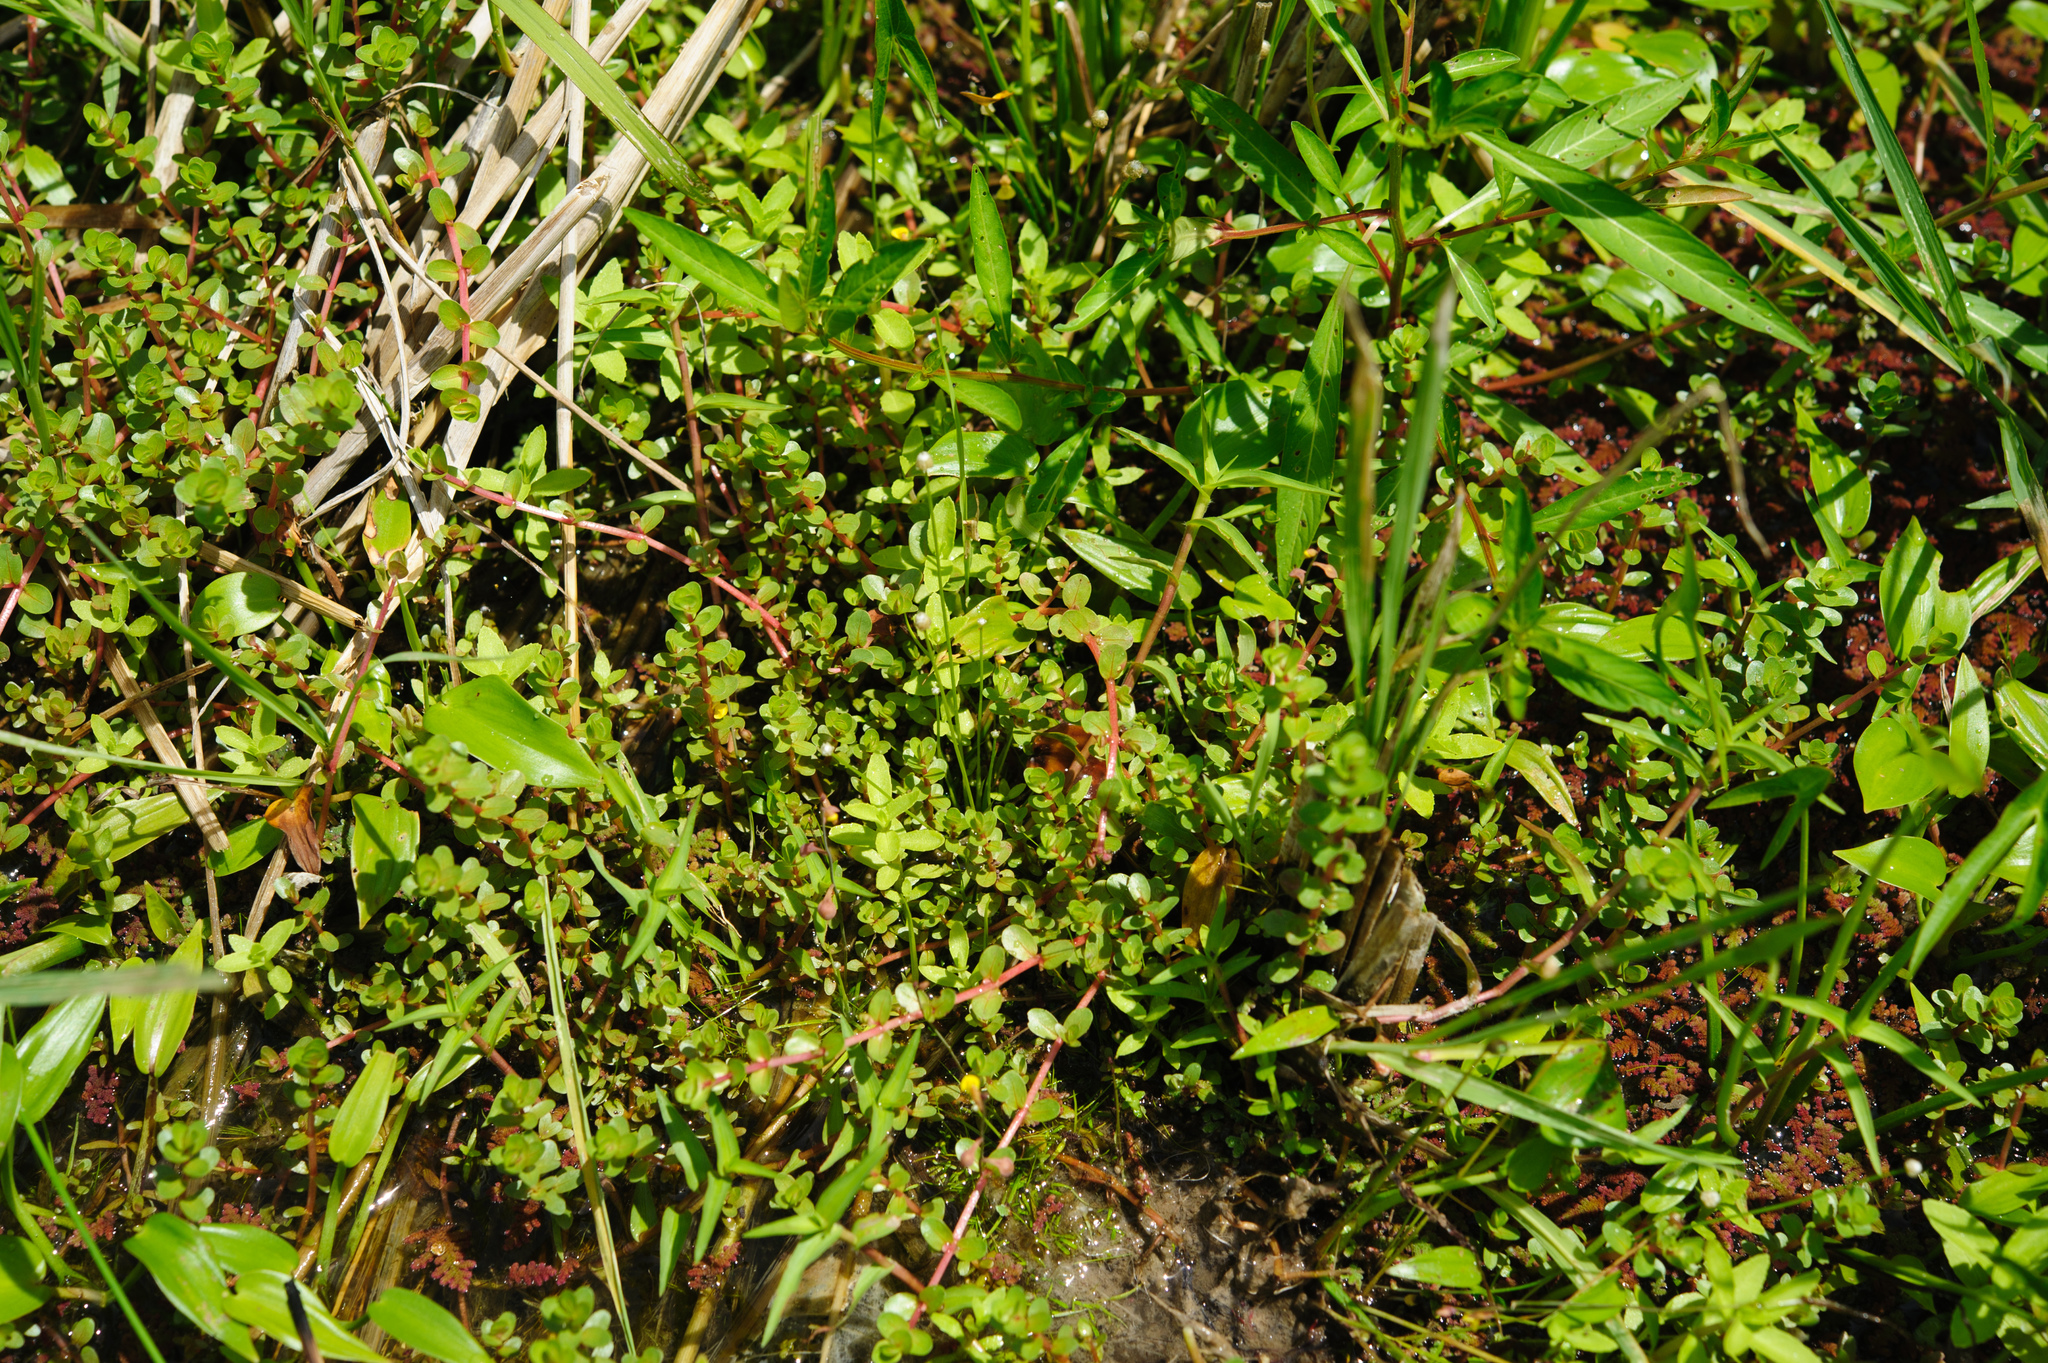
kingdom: Plantae
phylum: Tracheophyta
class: Magnoliopsida
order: Myrtales
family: Lythraceae
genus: Rotala
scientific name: Rotala rotundifolia
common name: Roundleaf toothcup
